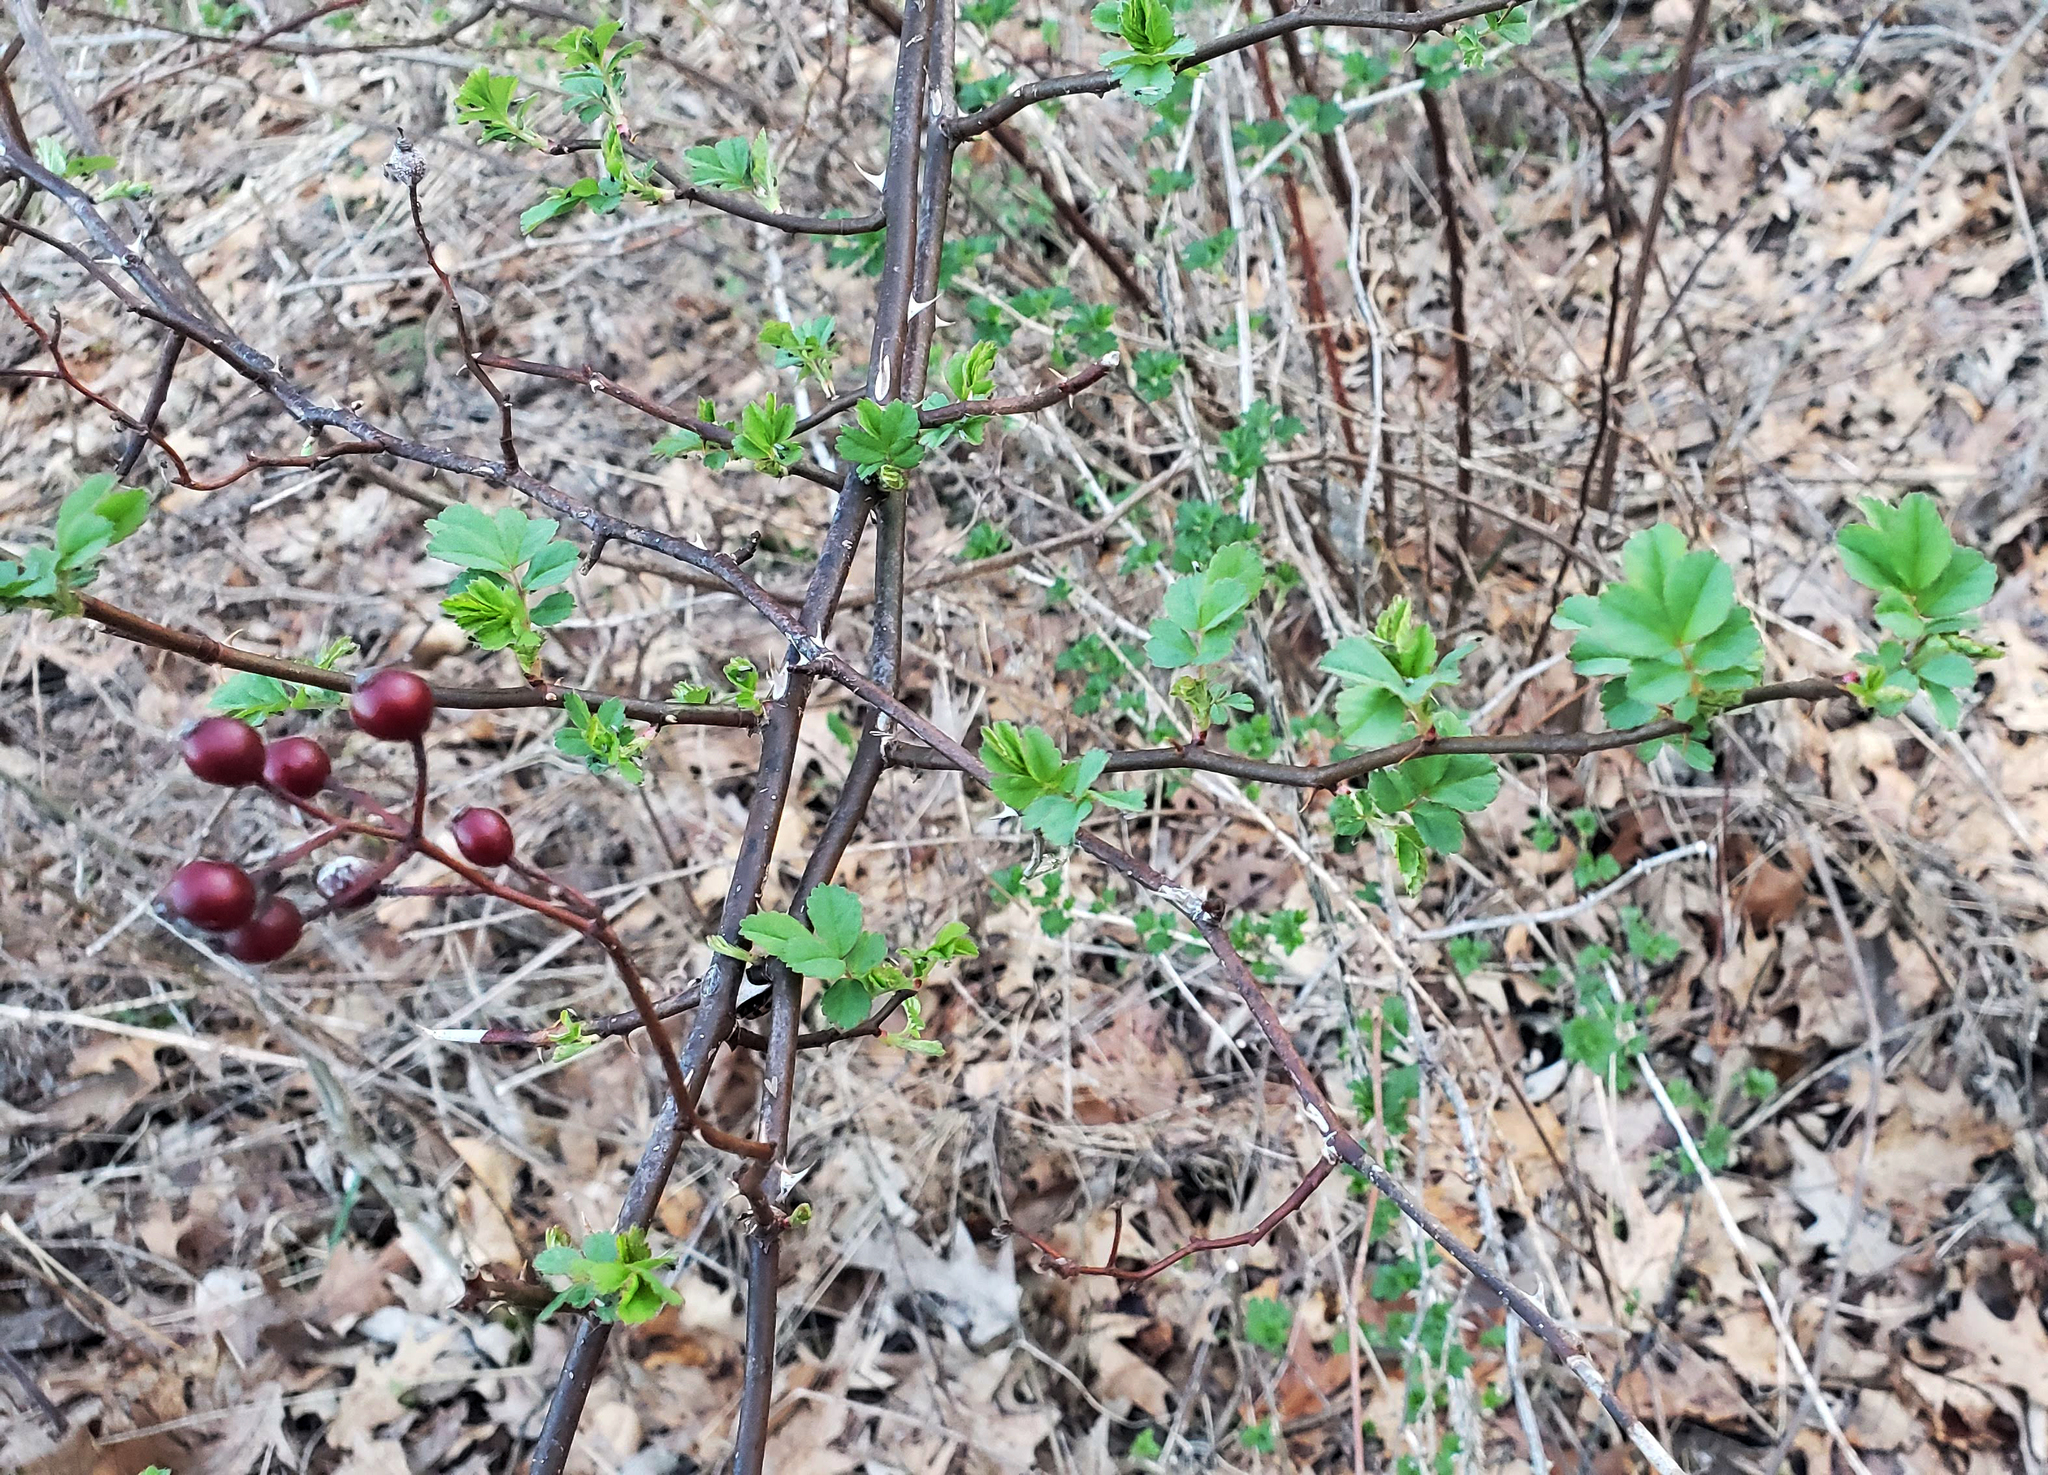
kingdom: Plantae
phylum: Tracheophyta
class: Magnoliopsida
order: Rosales
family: Rosaceae
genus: Rosa
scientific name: Rosa multiflora
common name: Multiflora rose
